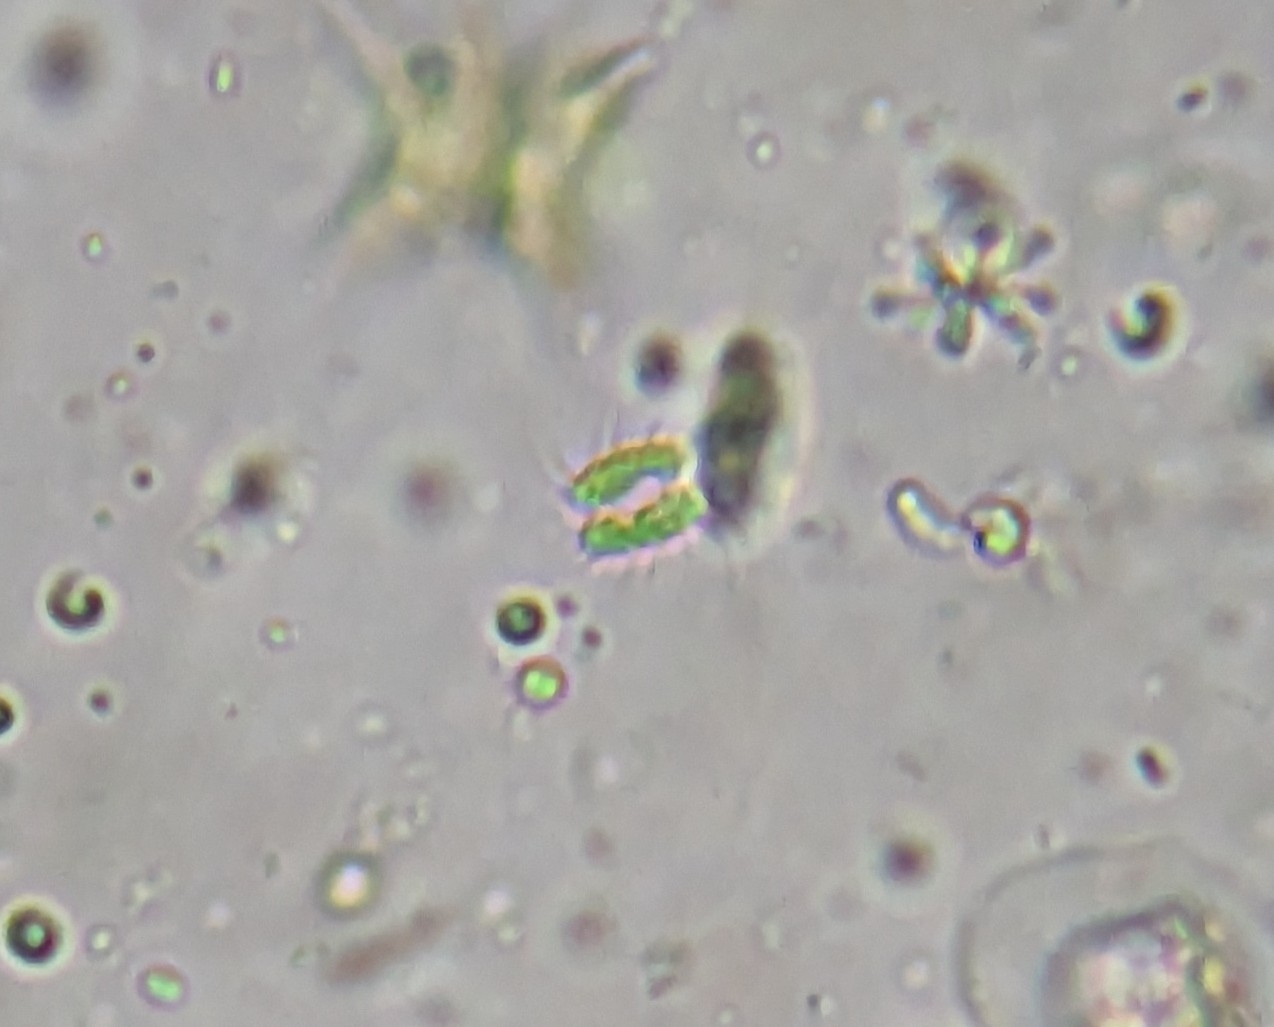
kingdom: Plantae
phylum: Chlorophyta
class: Chlorophyceae
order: Sphaeropleales
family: Scenedesmaceae
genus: Desmodesmus
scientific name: Desmodesmus abundans
